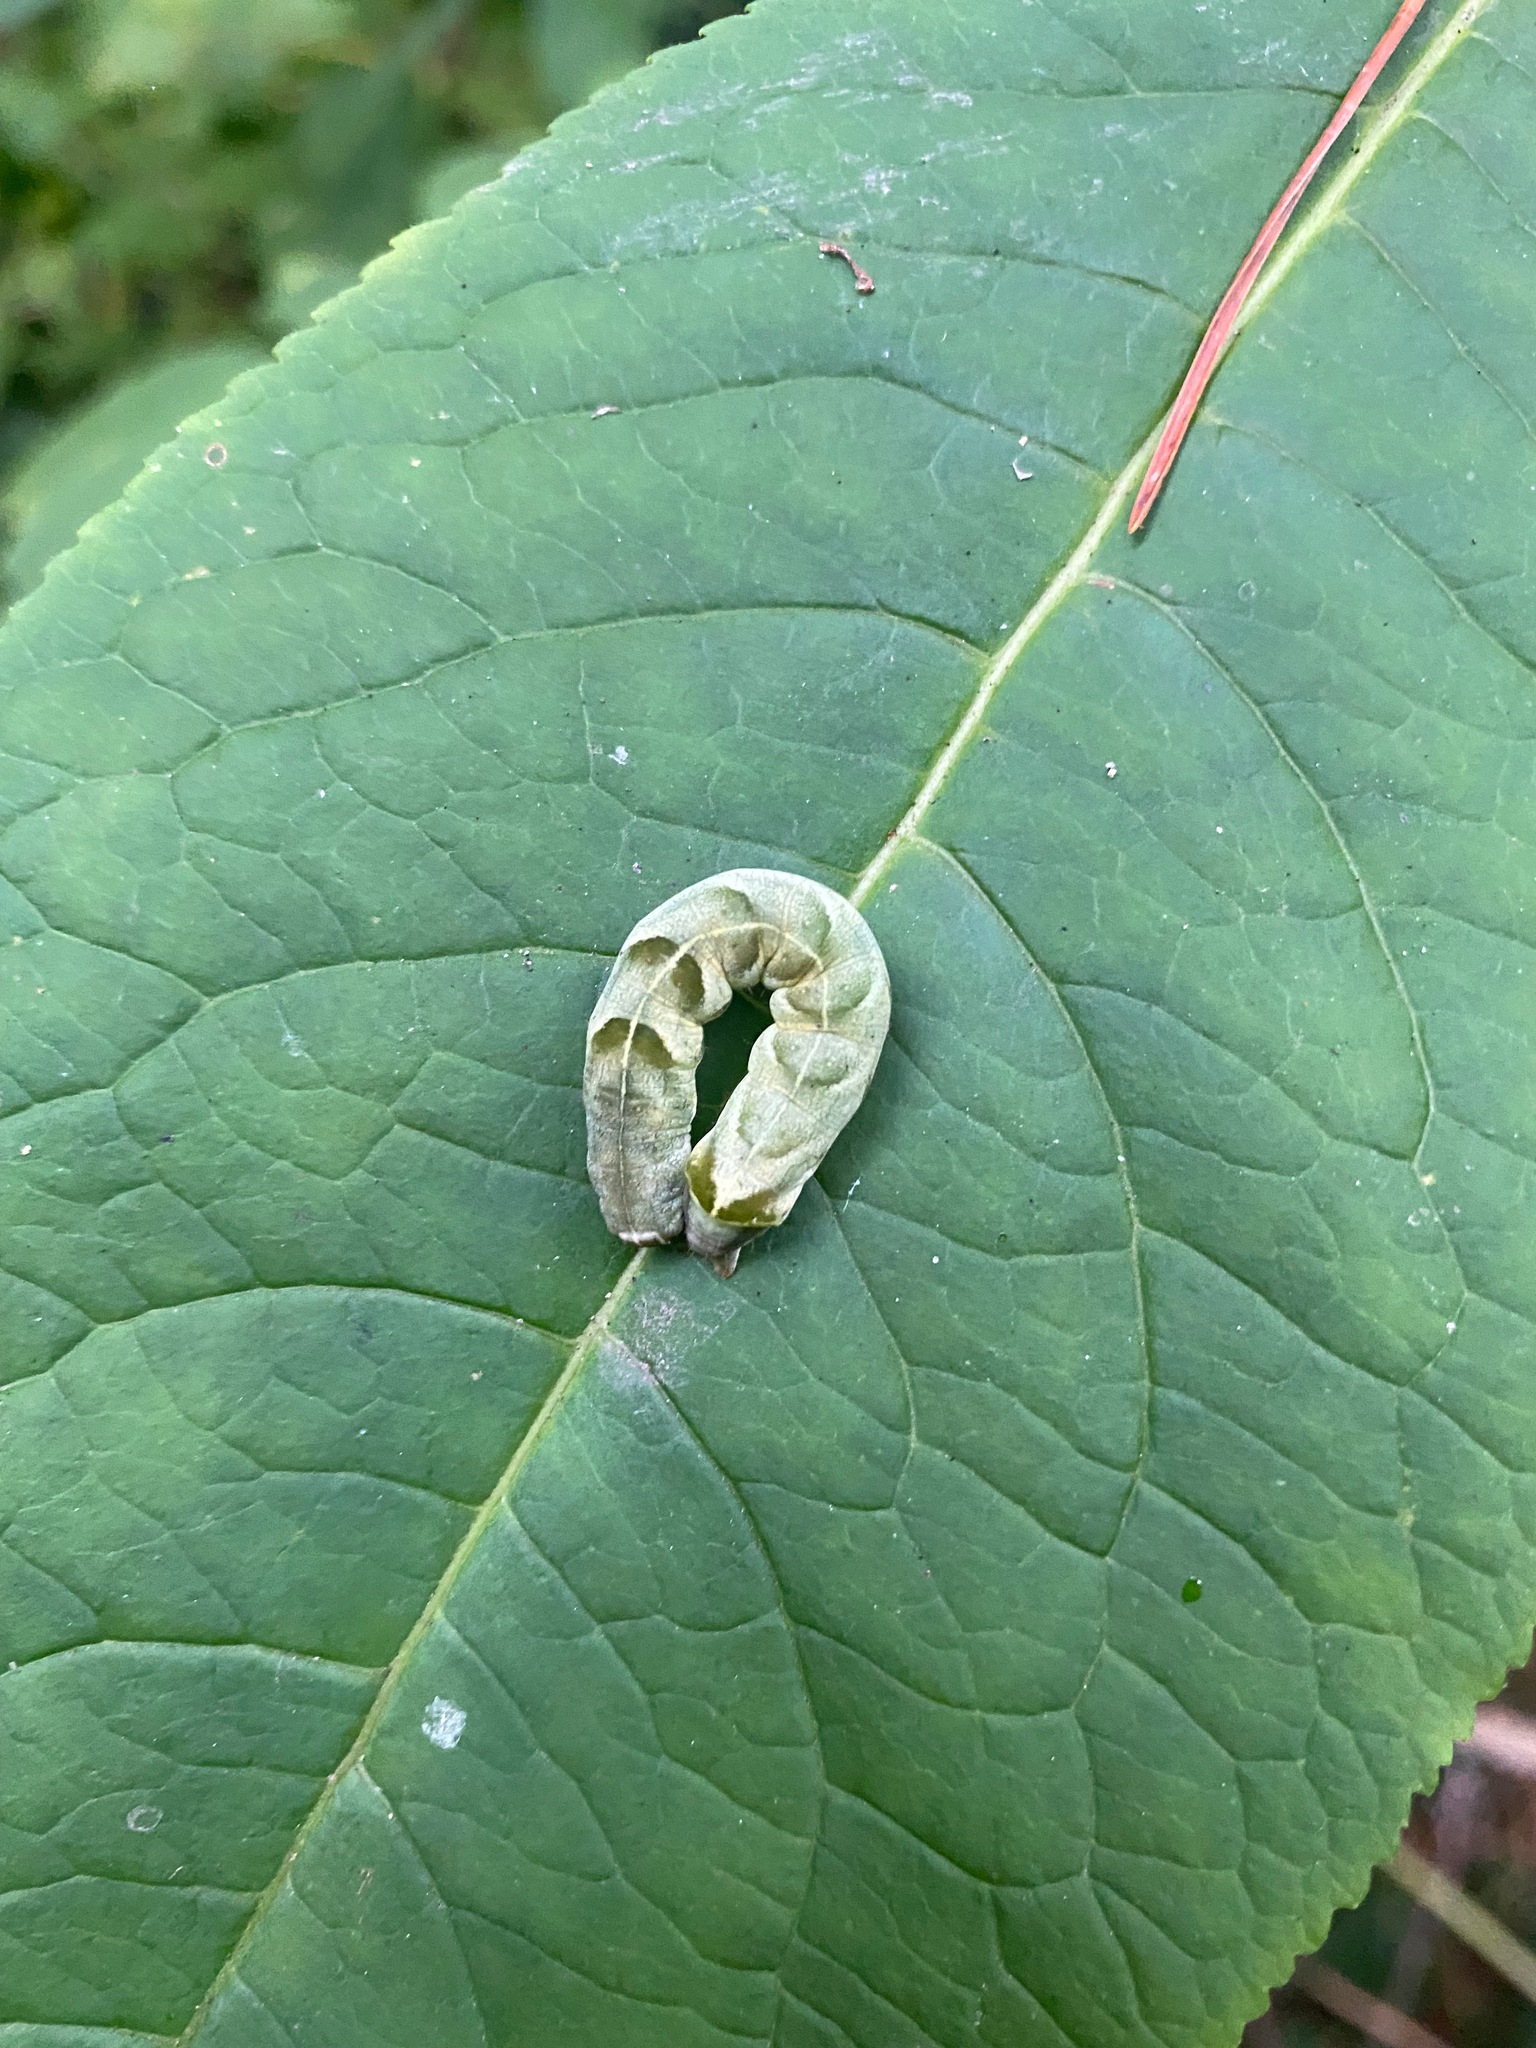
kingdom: Animalia
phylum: Arthropoda
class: Insecta
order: Lepidoptera
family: Noctuidae
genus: Melanchra
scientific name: Melanchra adjuncta
